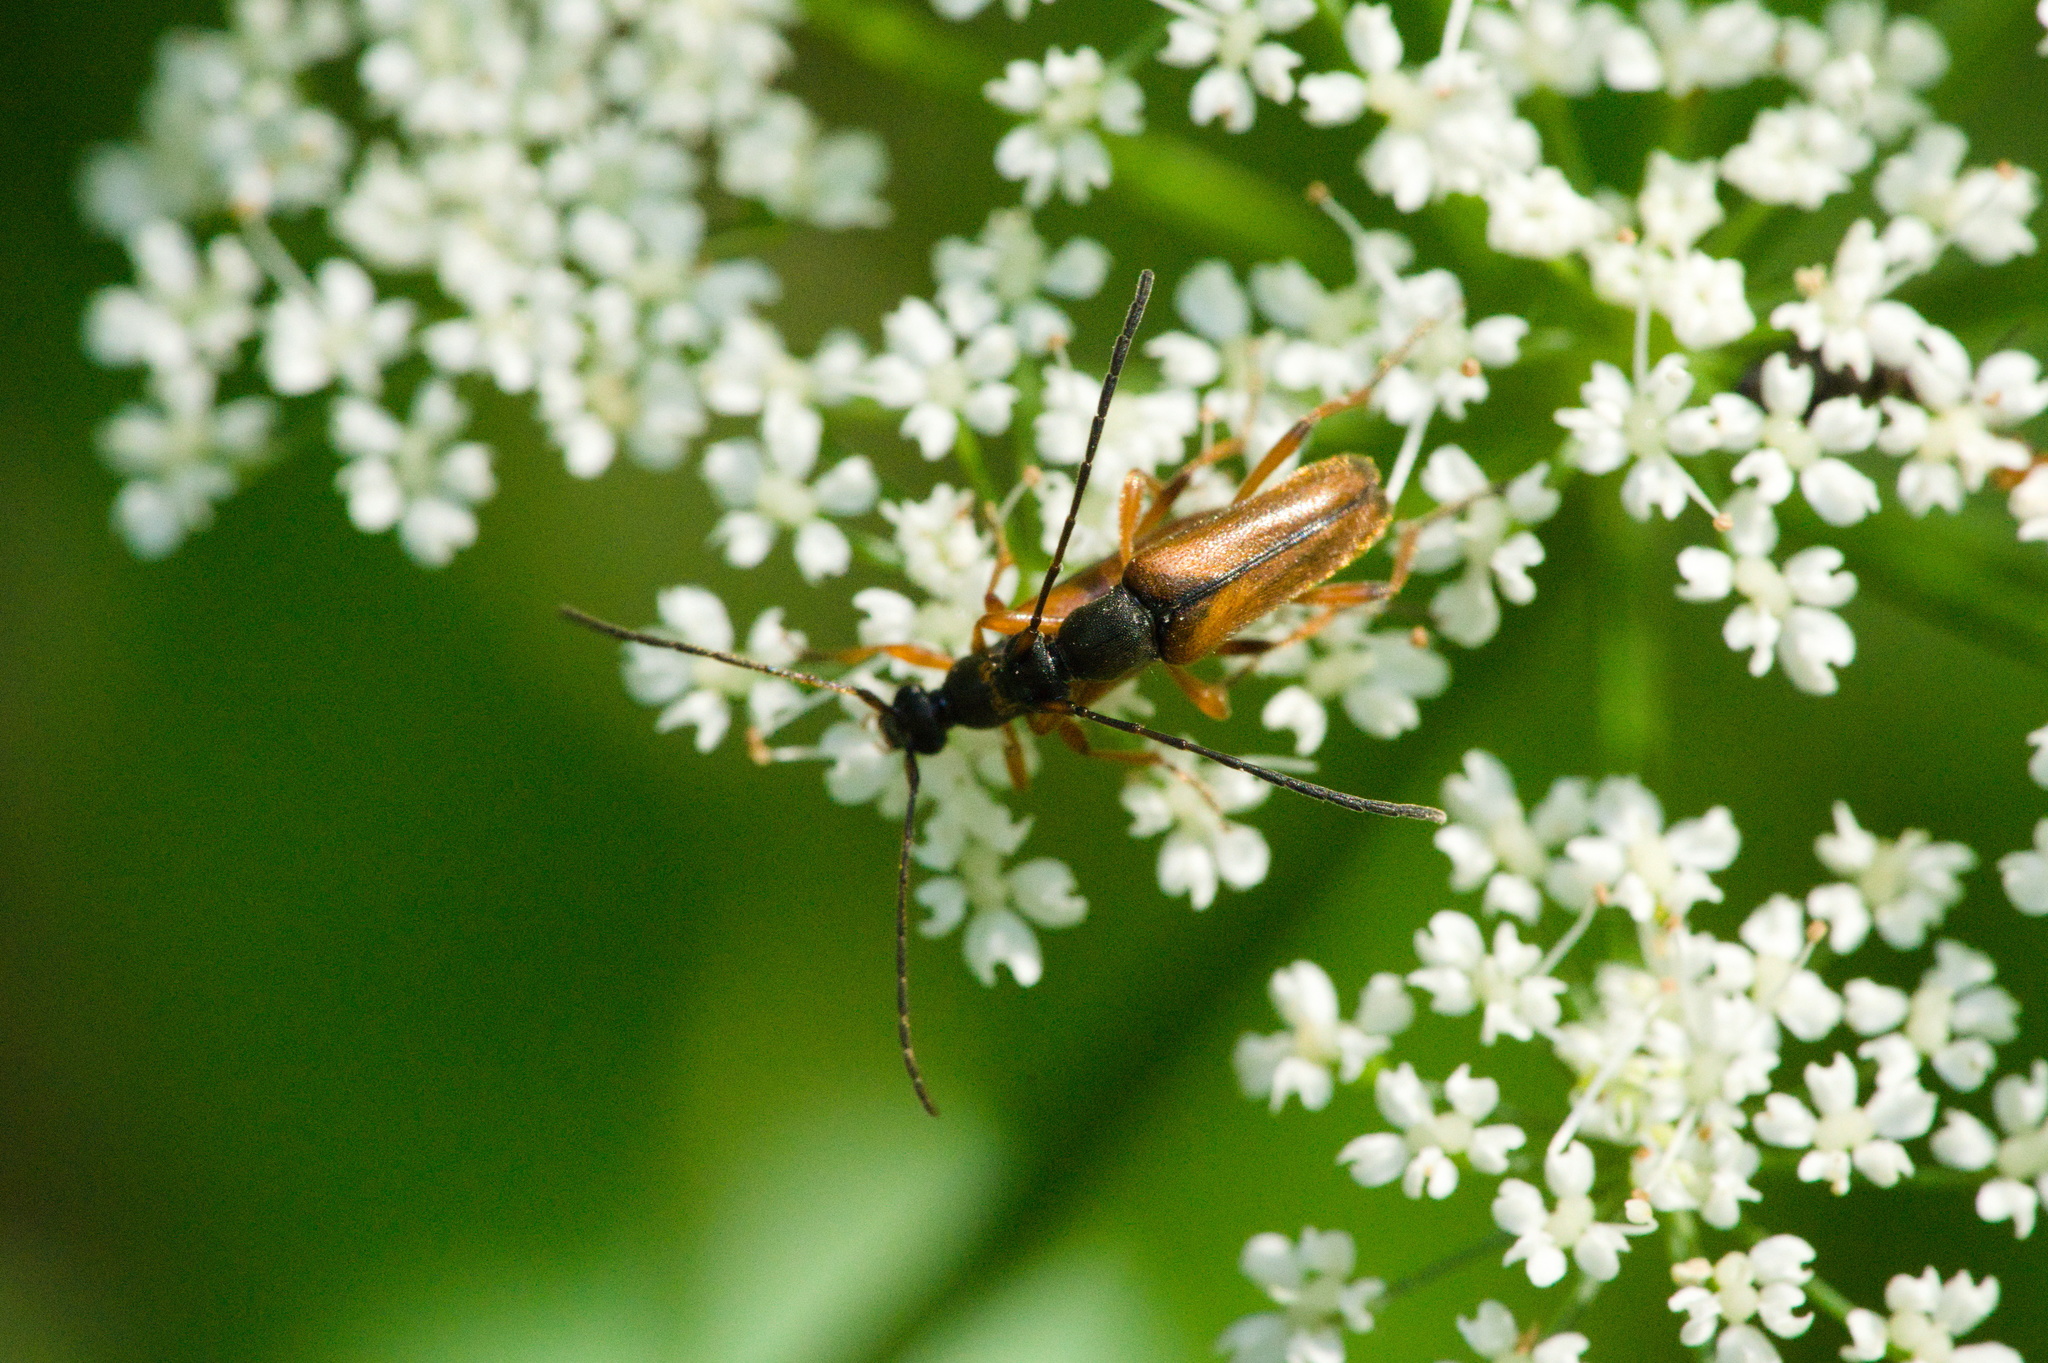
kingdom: Animalia
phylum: Arthropoda
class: Insecta
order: Coleoptera
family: Cerambycidae
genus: Alosterna
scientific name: Alosterna tabacicolor
